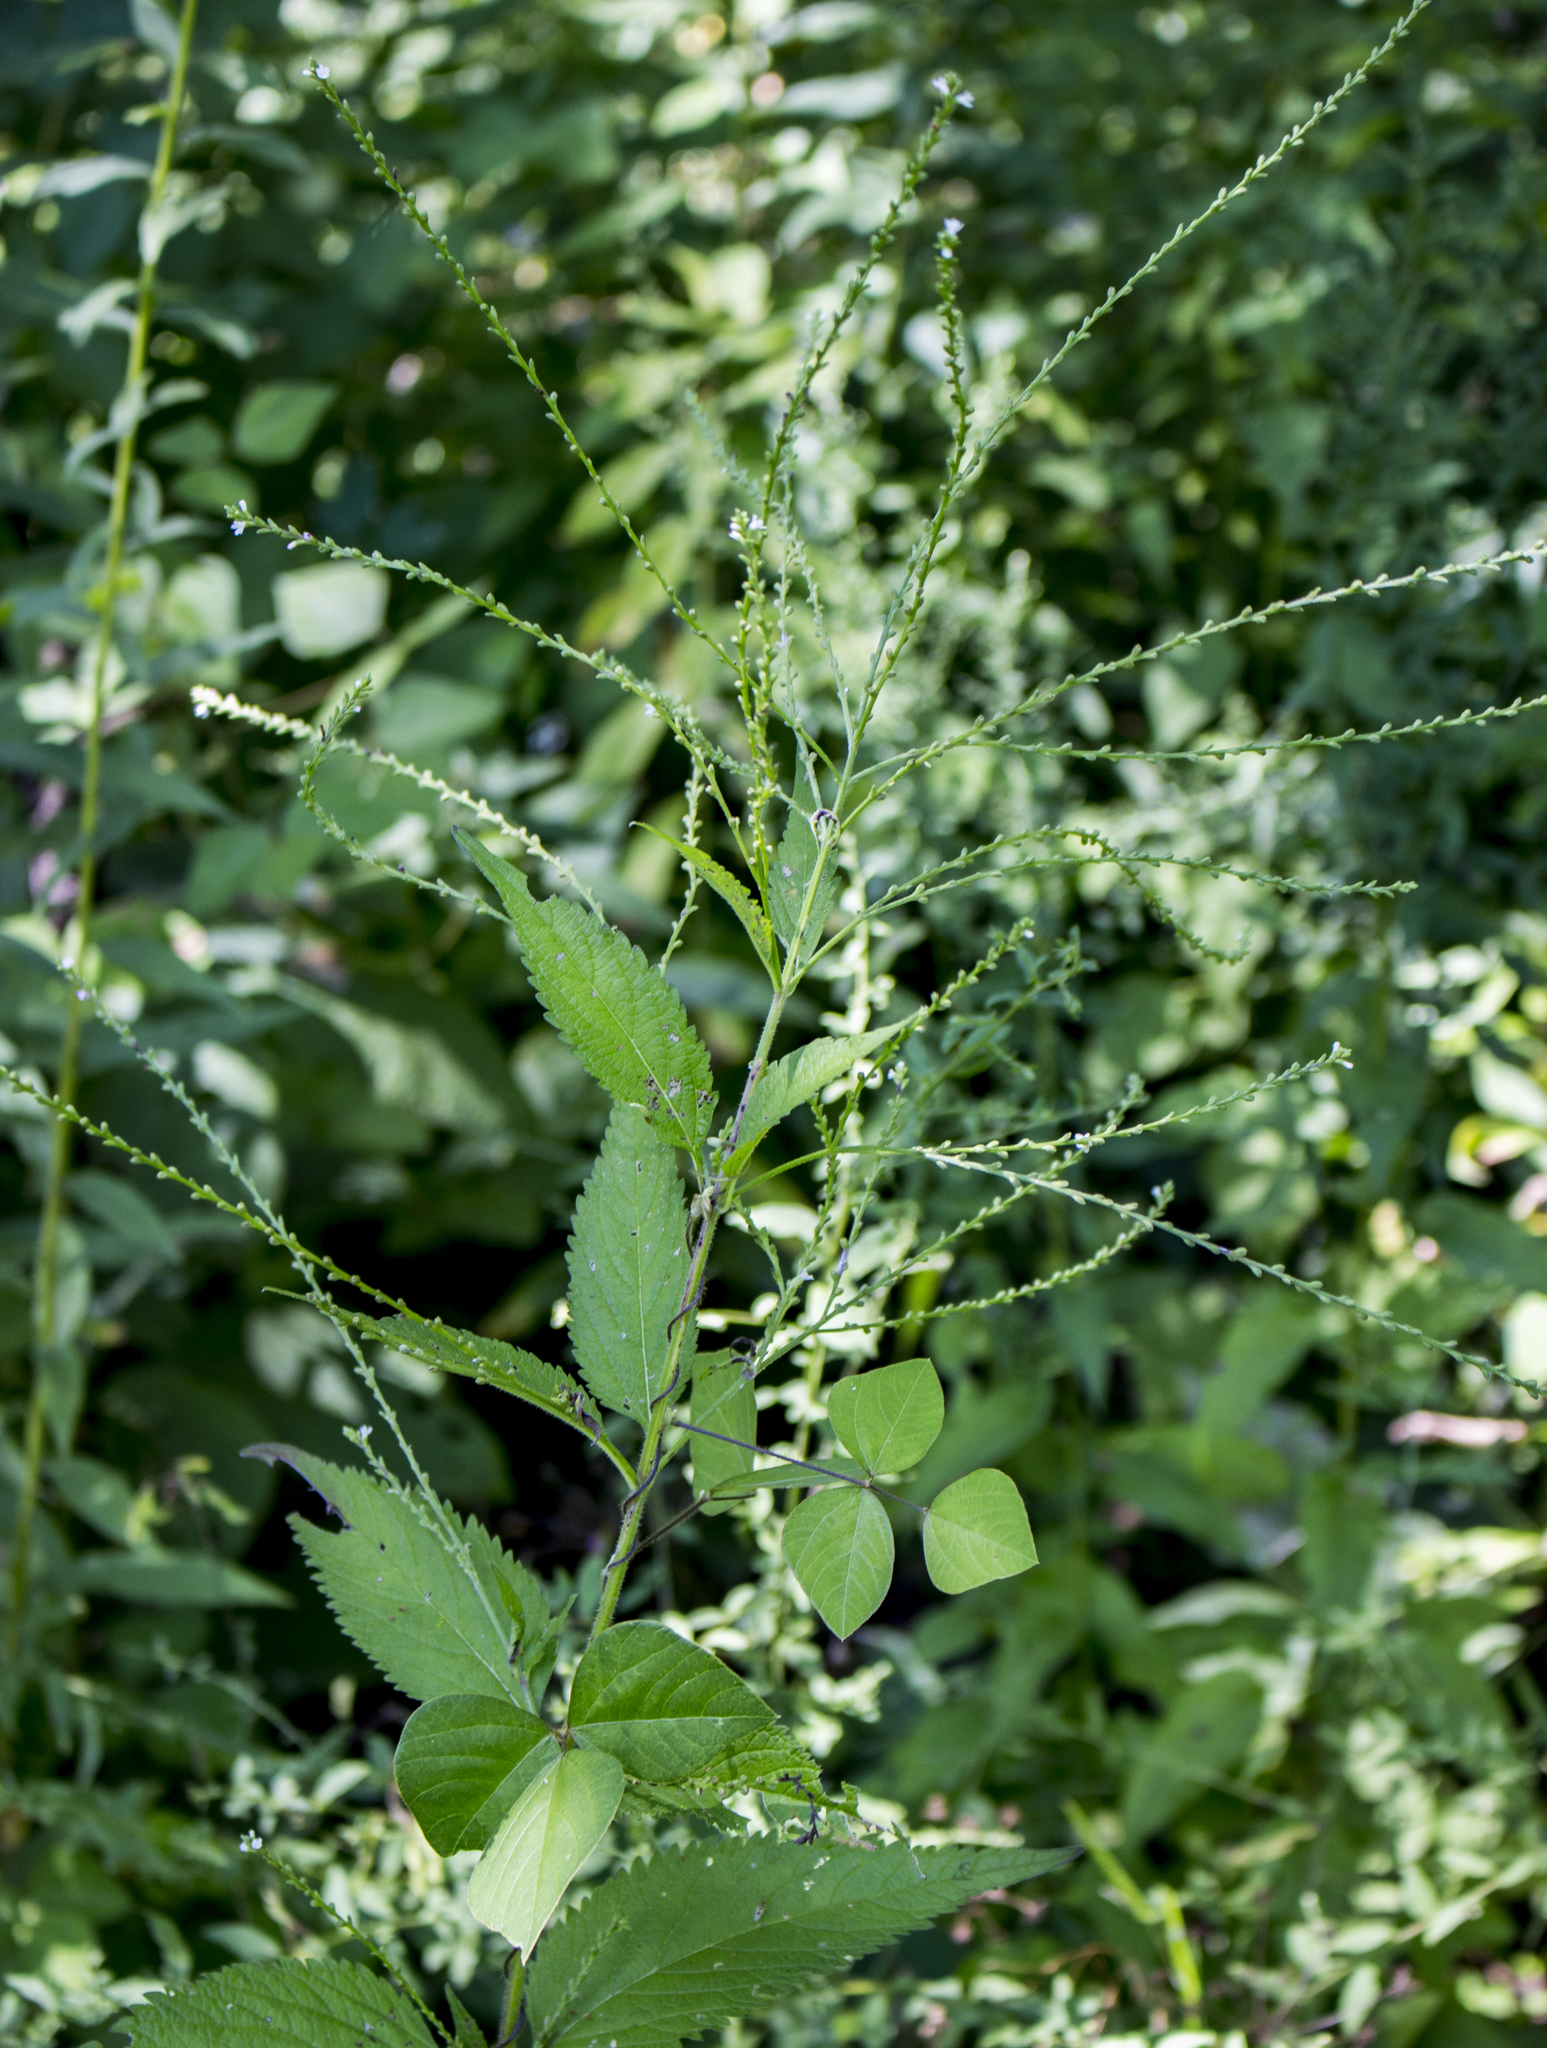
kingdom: Plantae
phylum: Tracheophyta
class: Magnoliopsida
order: Lamiales
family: Verbenaceae
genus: Verbena
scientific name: Verbena urticifolia
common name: Nettle-leaved vervain
